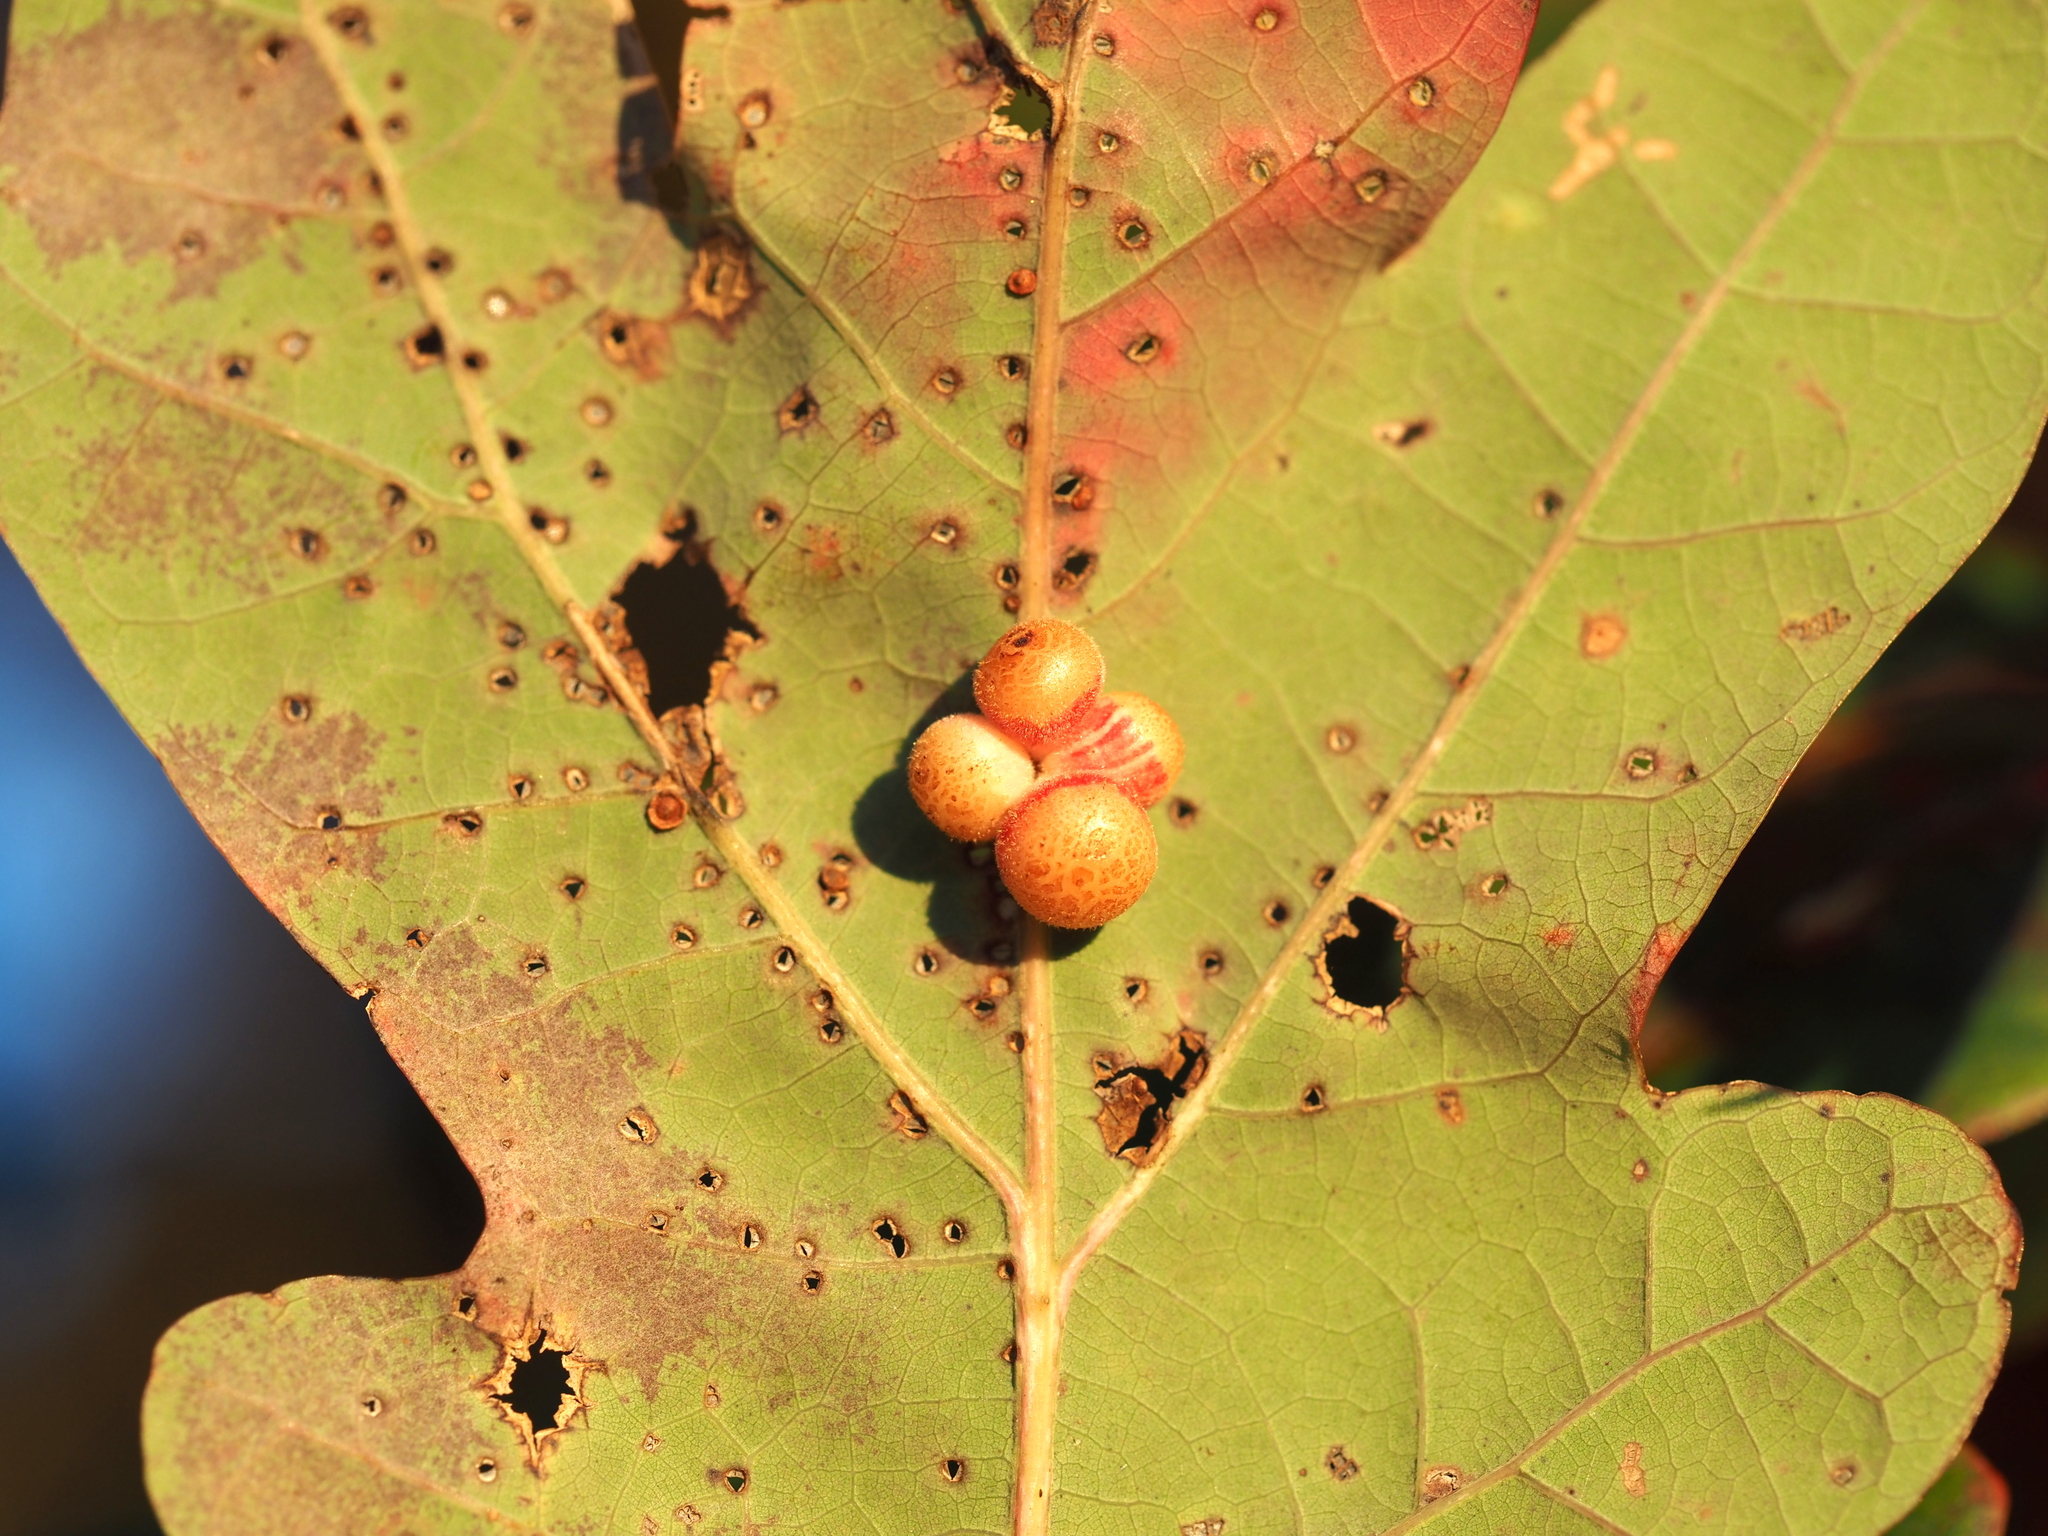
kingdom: Animalia
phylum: Arthropoda
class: Insecta
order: Hymenoptera
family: Cynipidae
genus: Andricus
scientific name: Andricus
